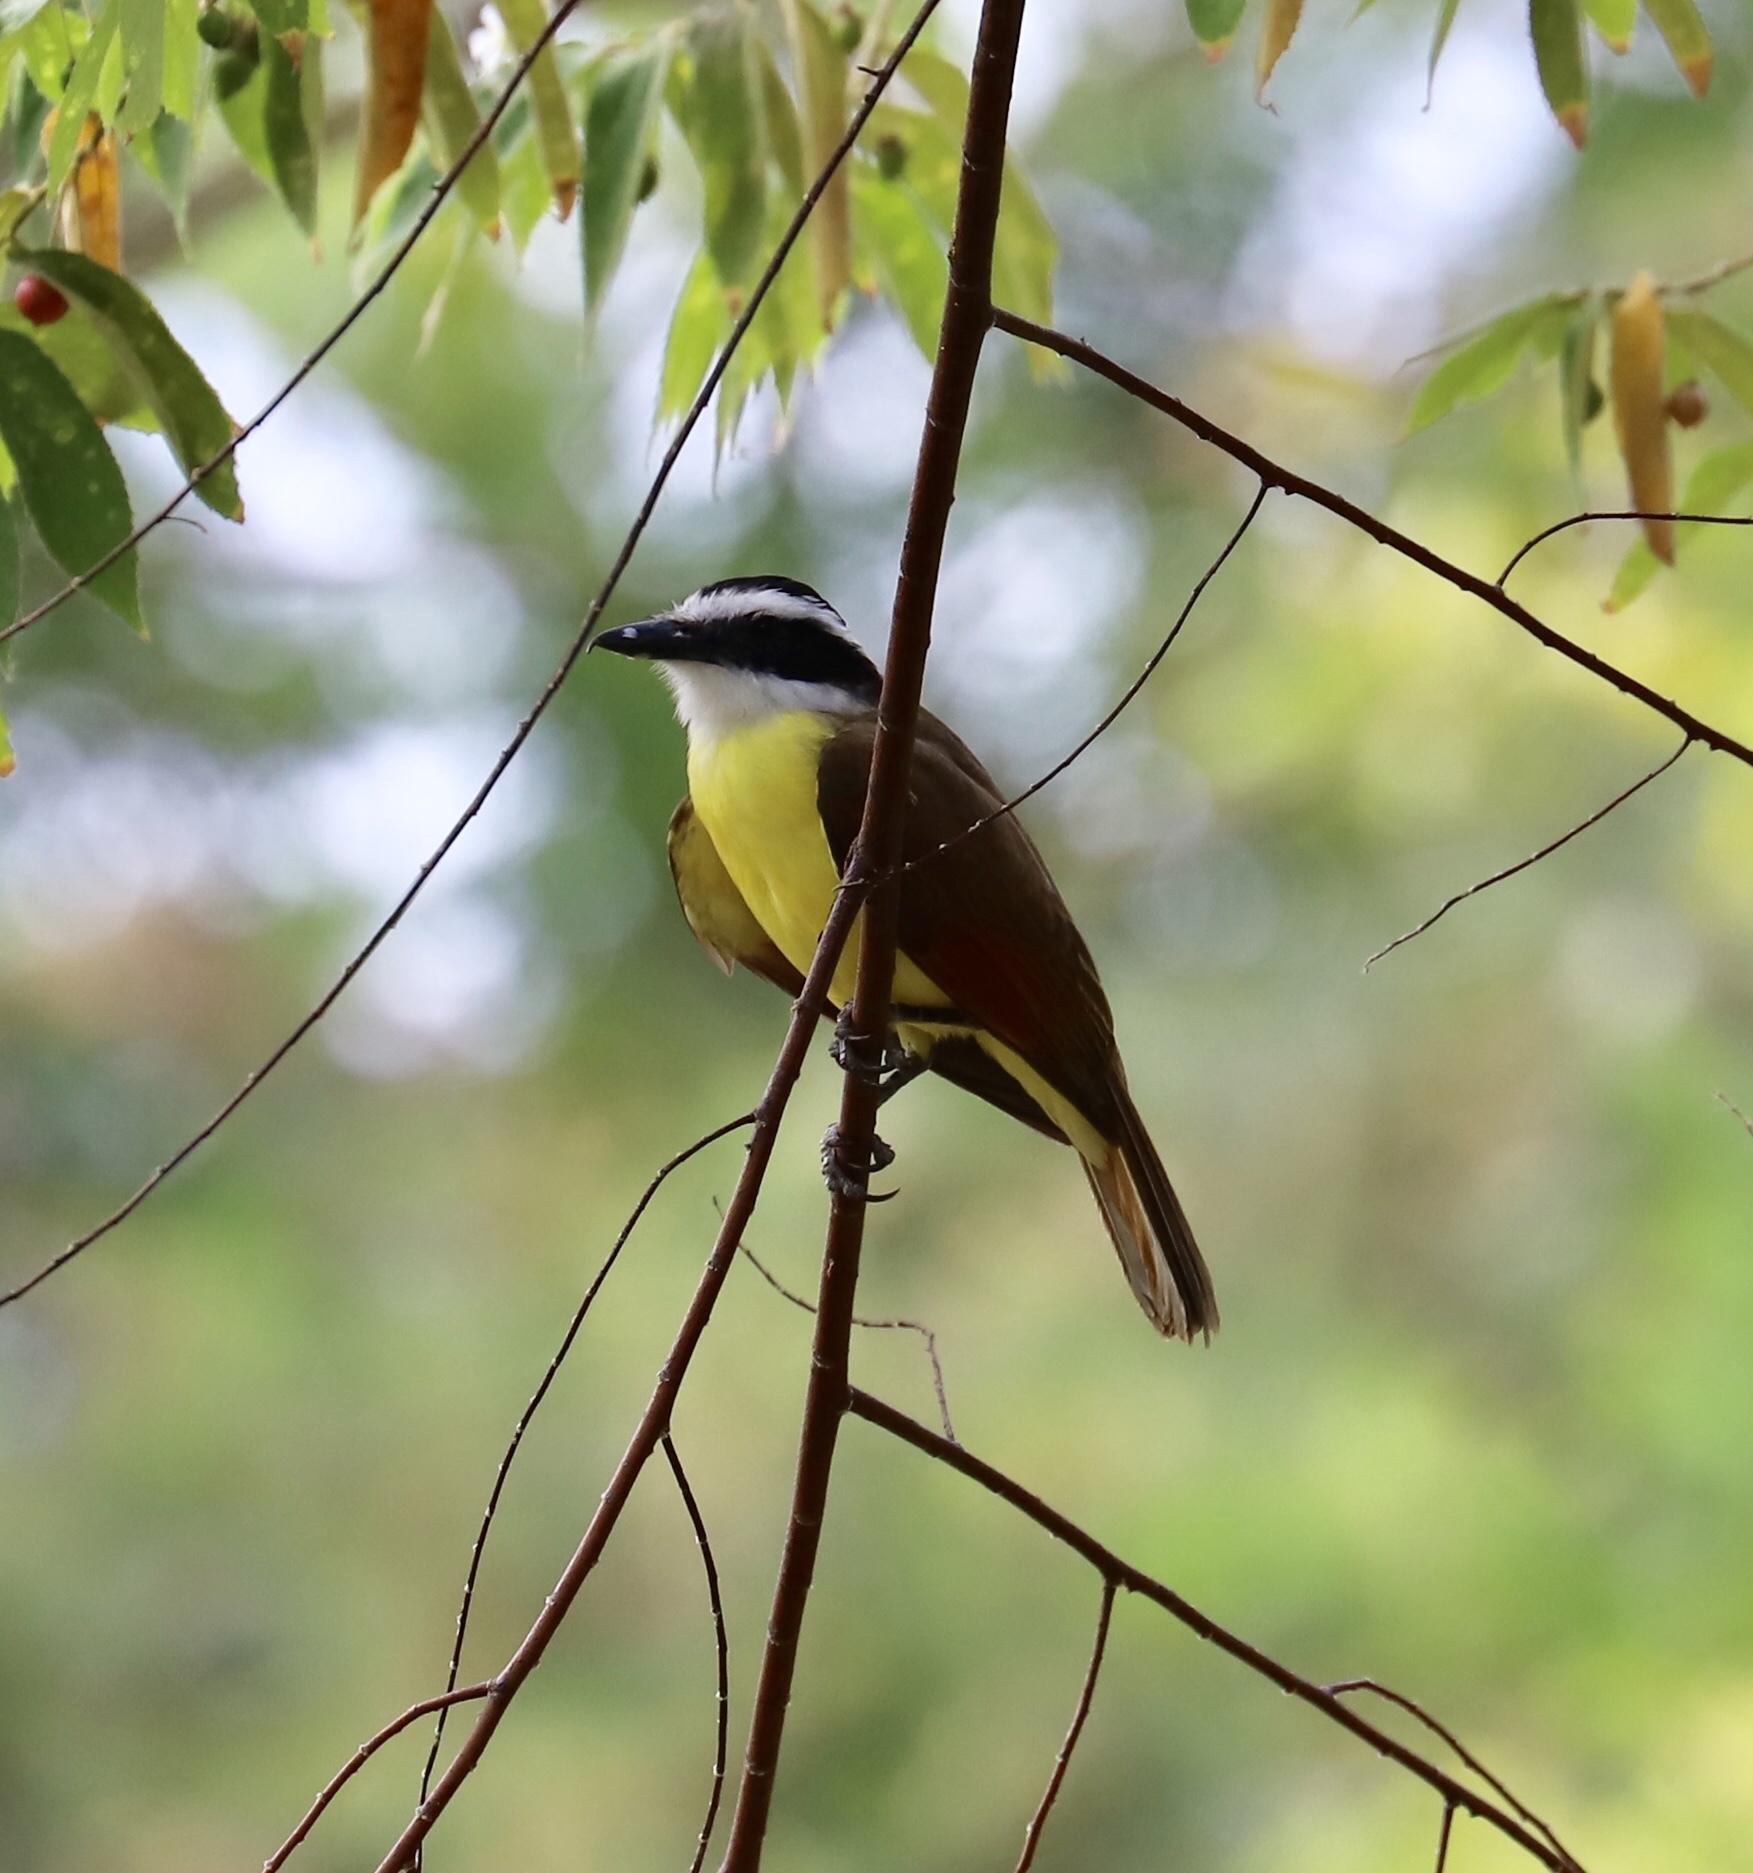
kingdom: Animalia
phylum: Chordata
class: Aves
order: Passeriformes
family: Tyrannidae
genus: Pitangus
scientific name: Pitangus sulphuratus
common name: Great kiskadee
